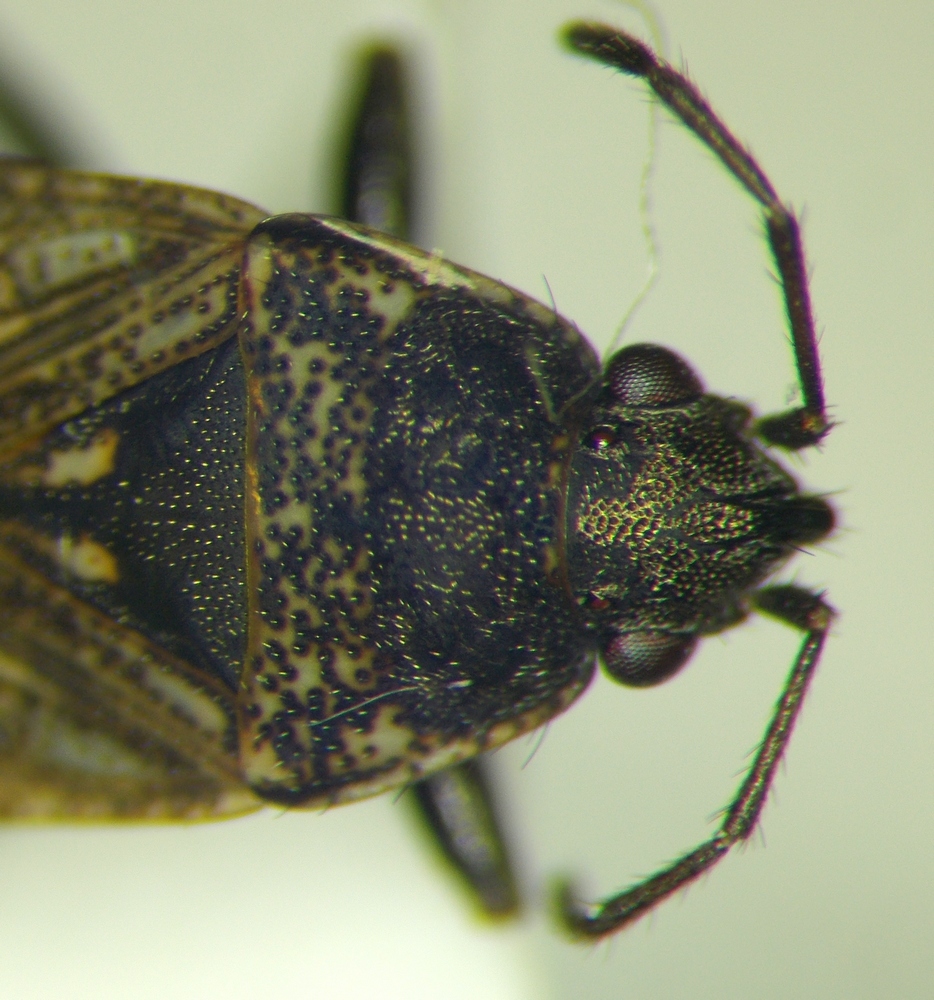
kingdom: Animalia
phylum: Arthropoda
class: Insecta
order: Hemiptera
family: Rhyparochromidae
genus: Sphragisticus
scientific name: Sphragisticus nebulosus
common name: Dirt-colored seed bug
